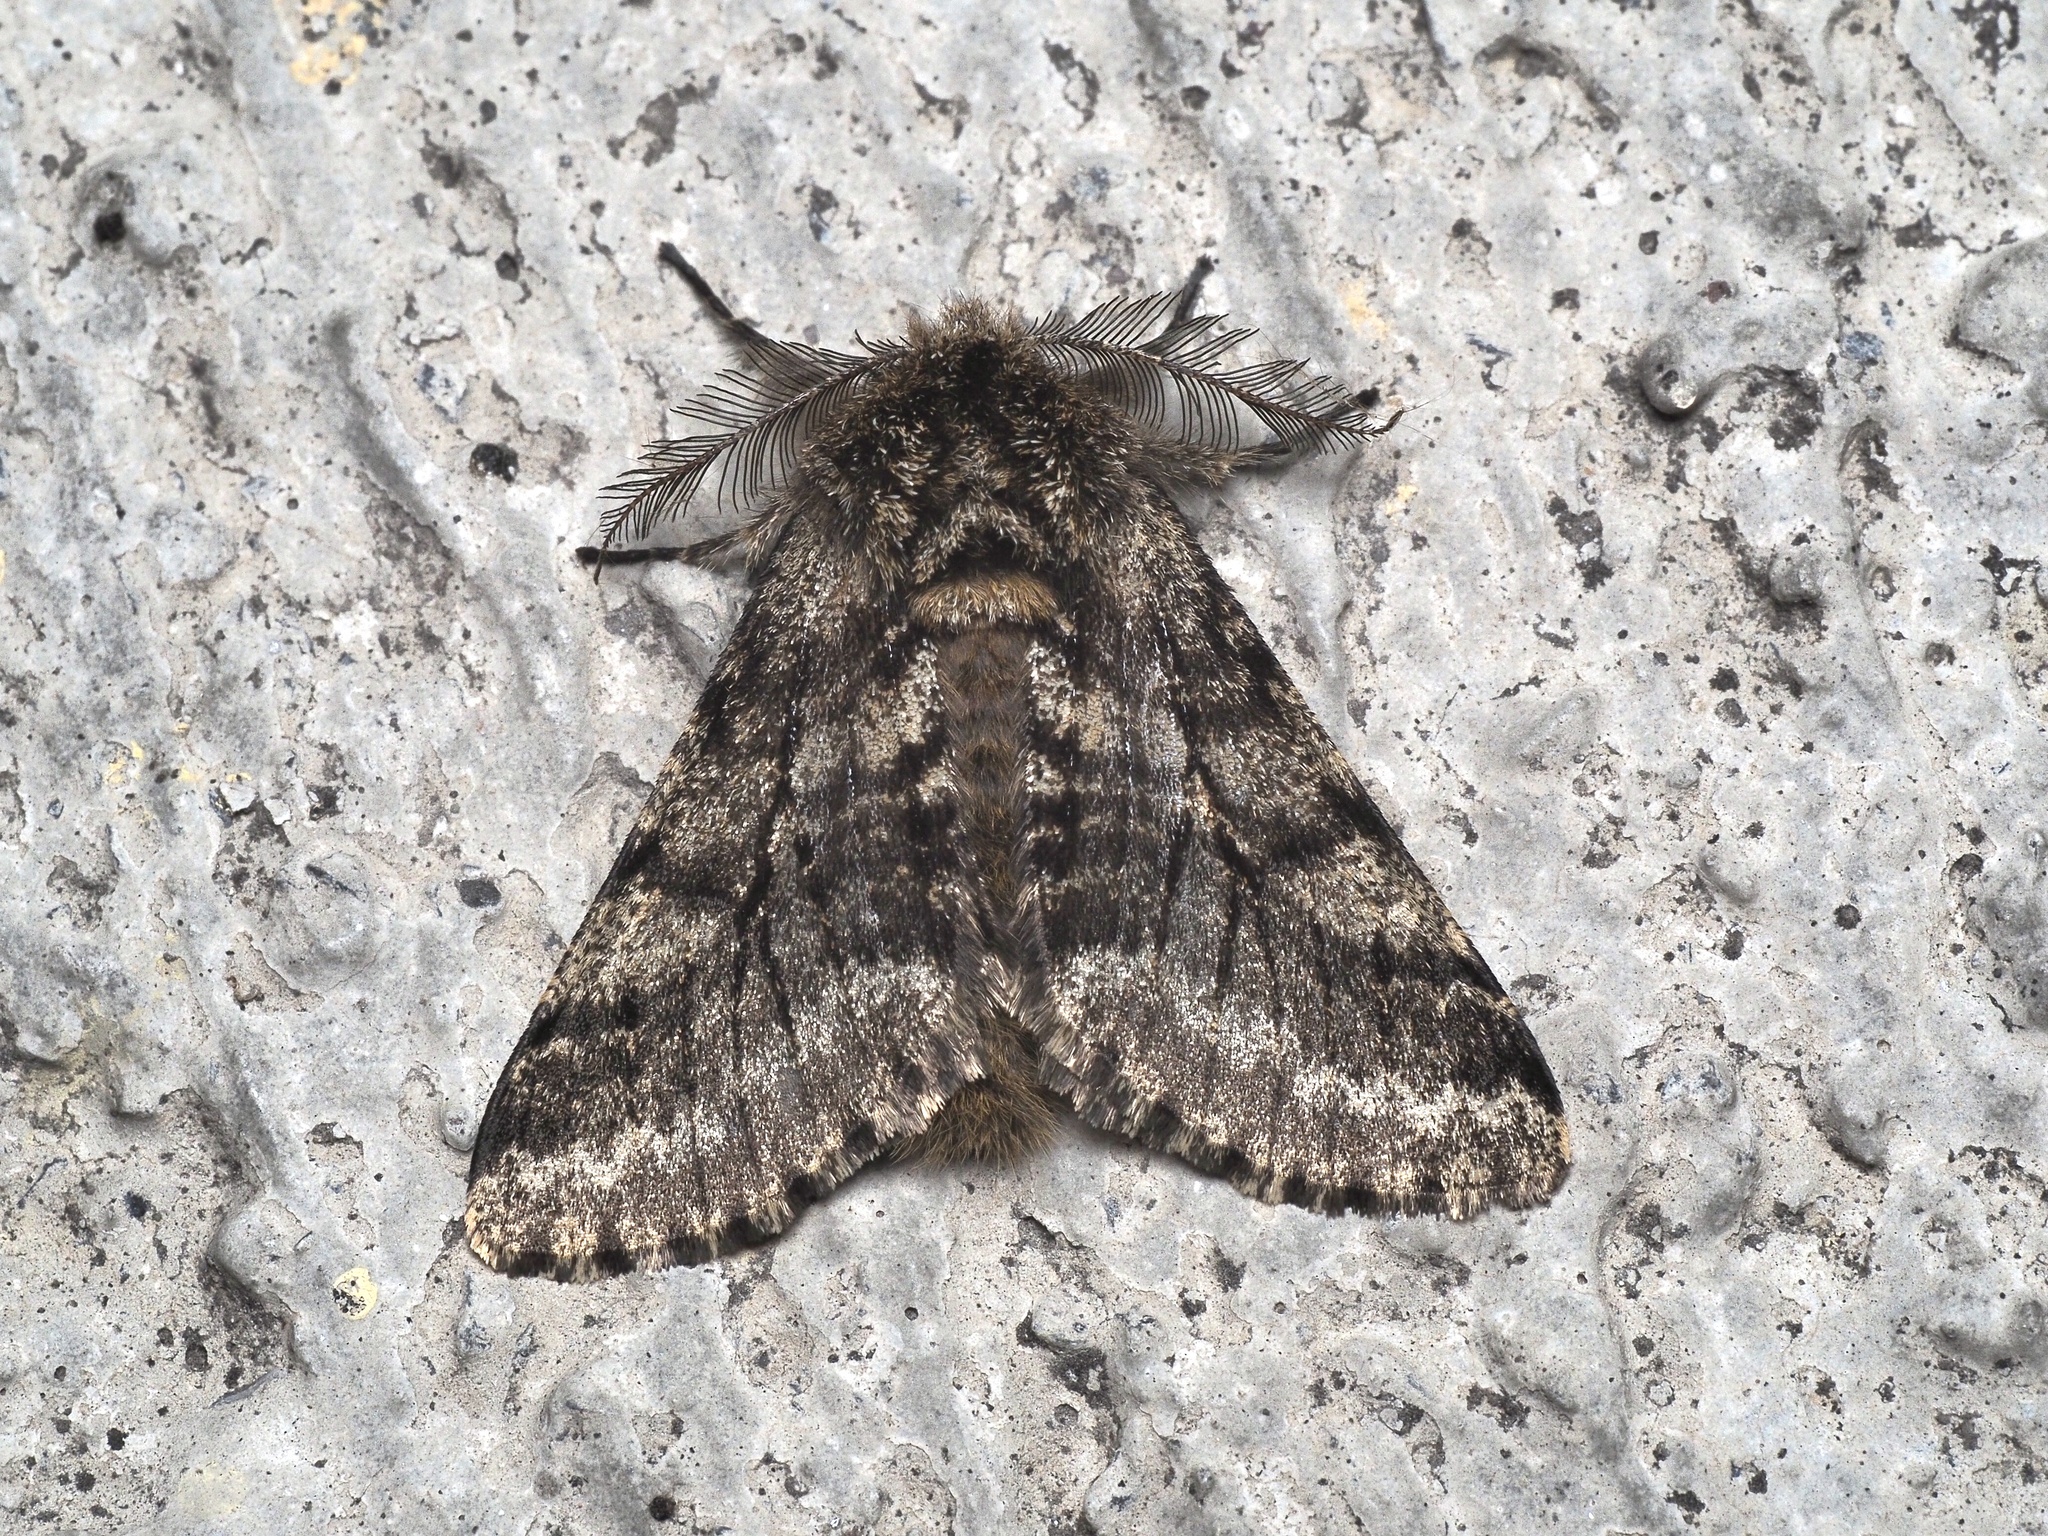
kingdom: Animalia
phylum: Arthropoda
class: Insecta
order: Lepidoptera
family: Geometridae
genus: Lycia
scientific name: Lycia hirtaria
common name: Brindled beauty
